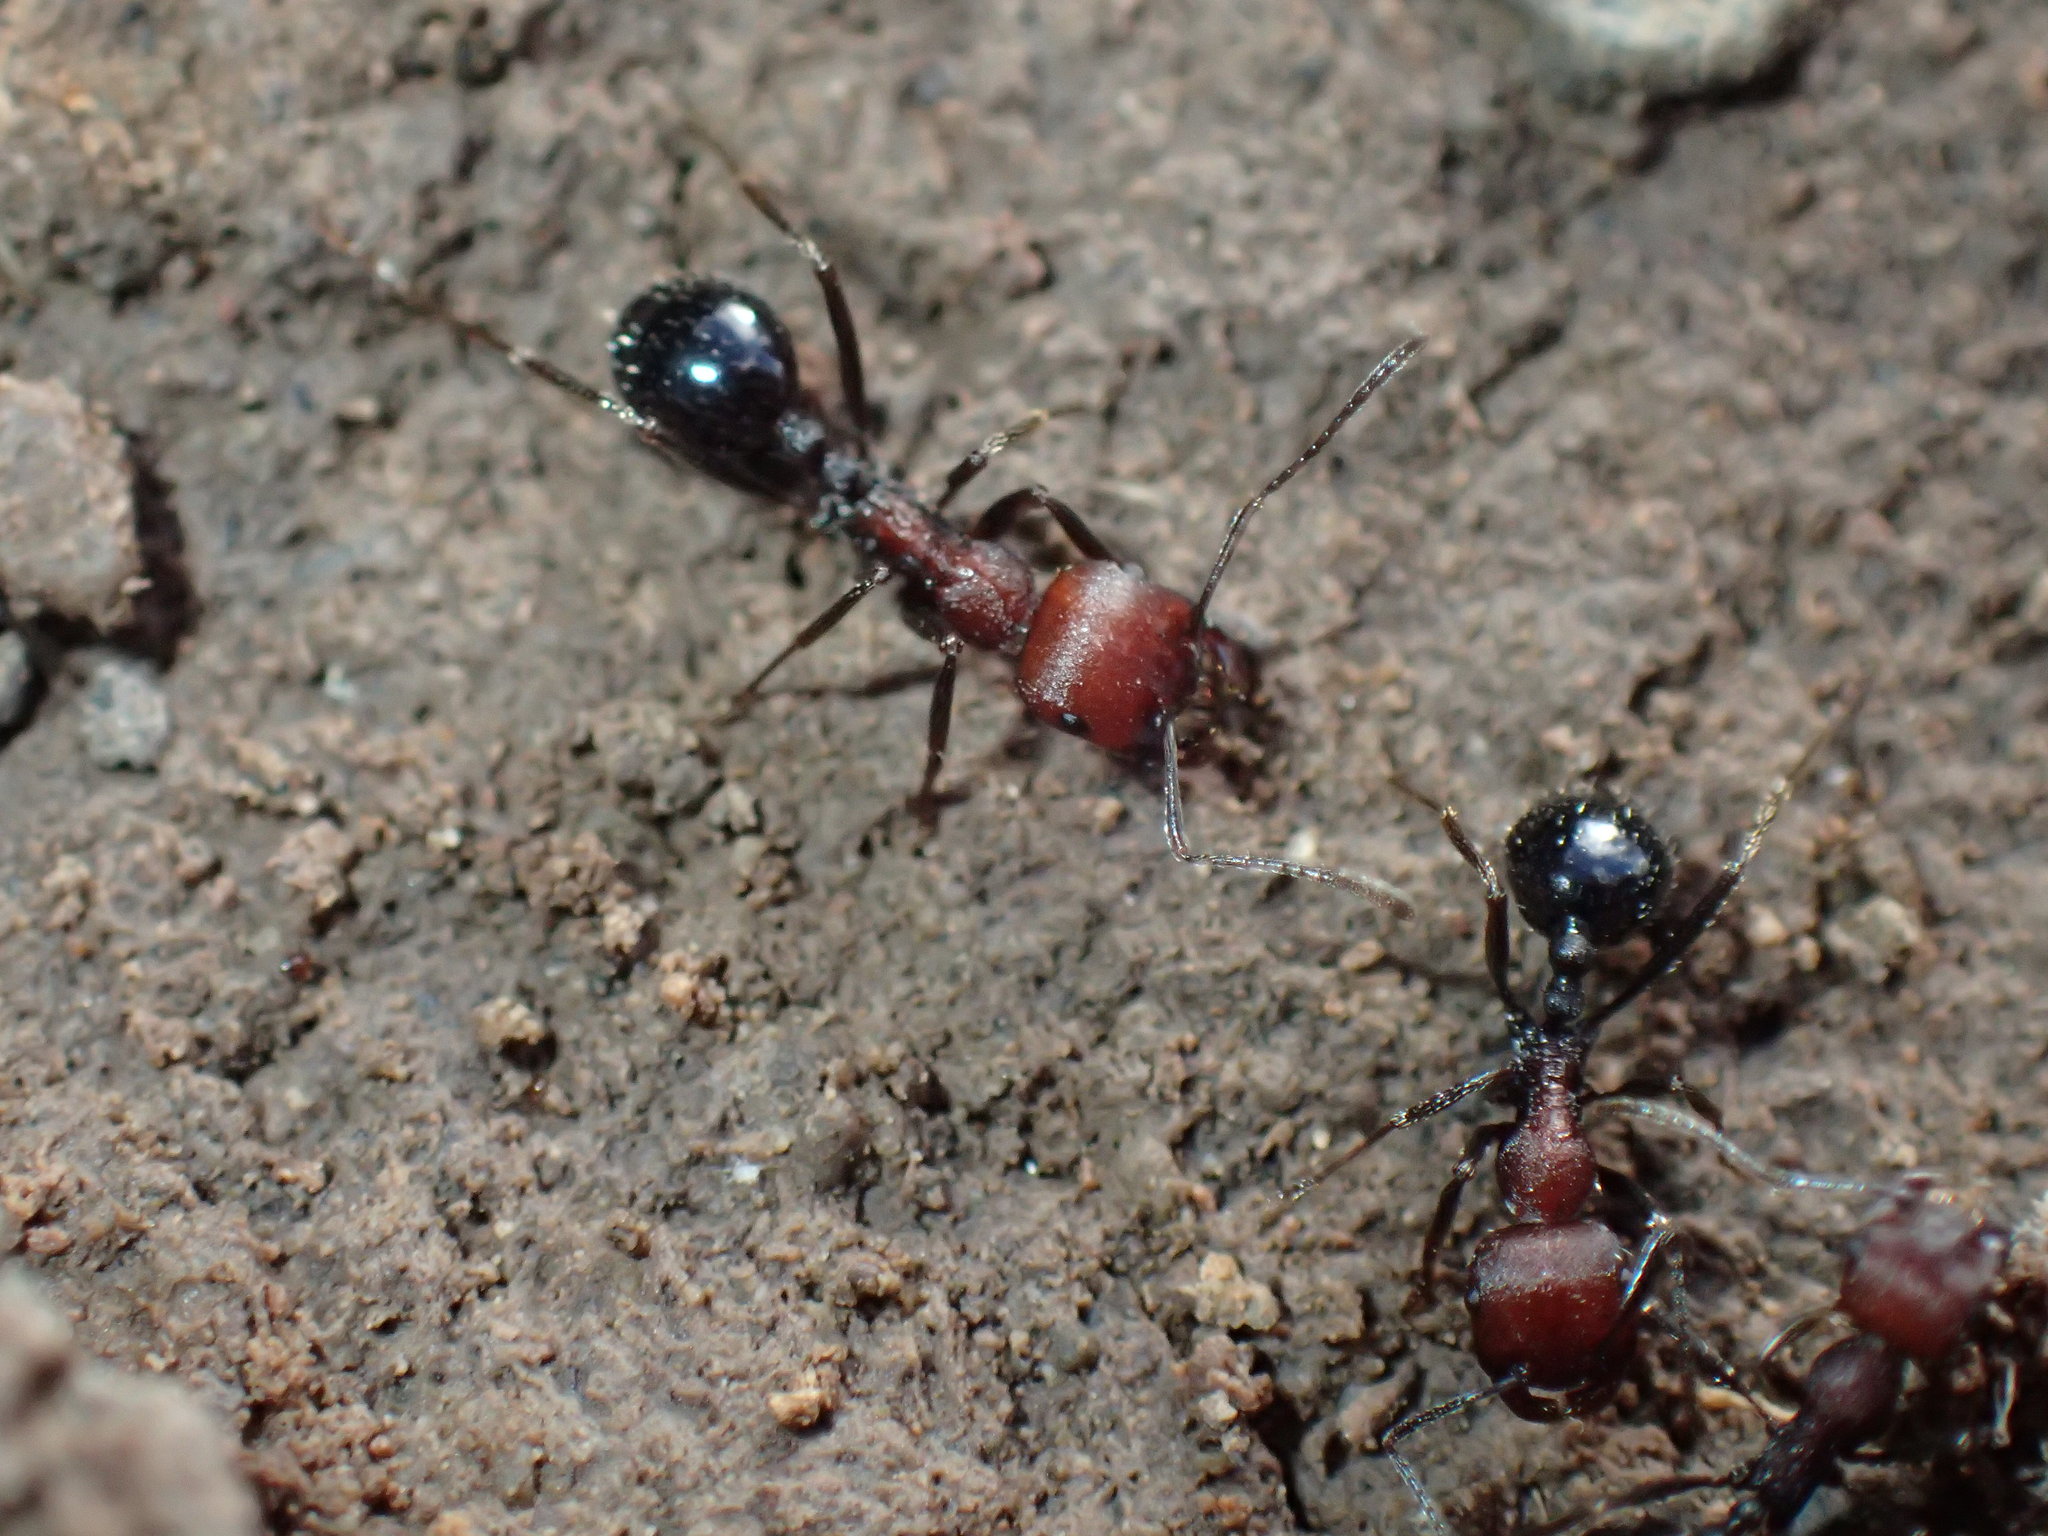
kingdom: Animalia
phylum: Arthropoda
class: Insecta
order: Hymenoptera
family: Formicidae
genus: Messor
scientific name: Messor capensis
